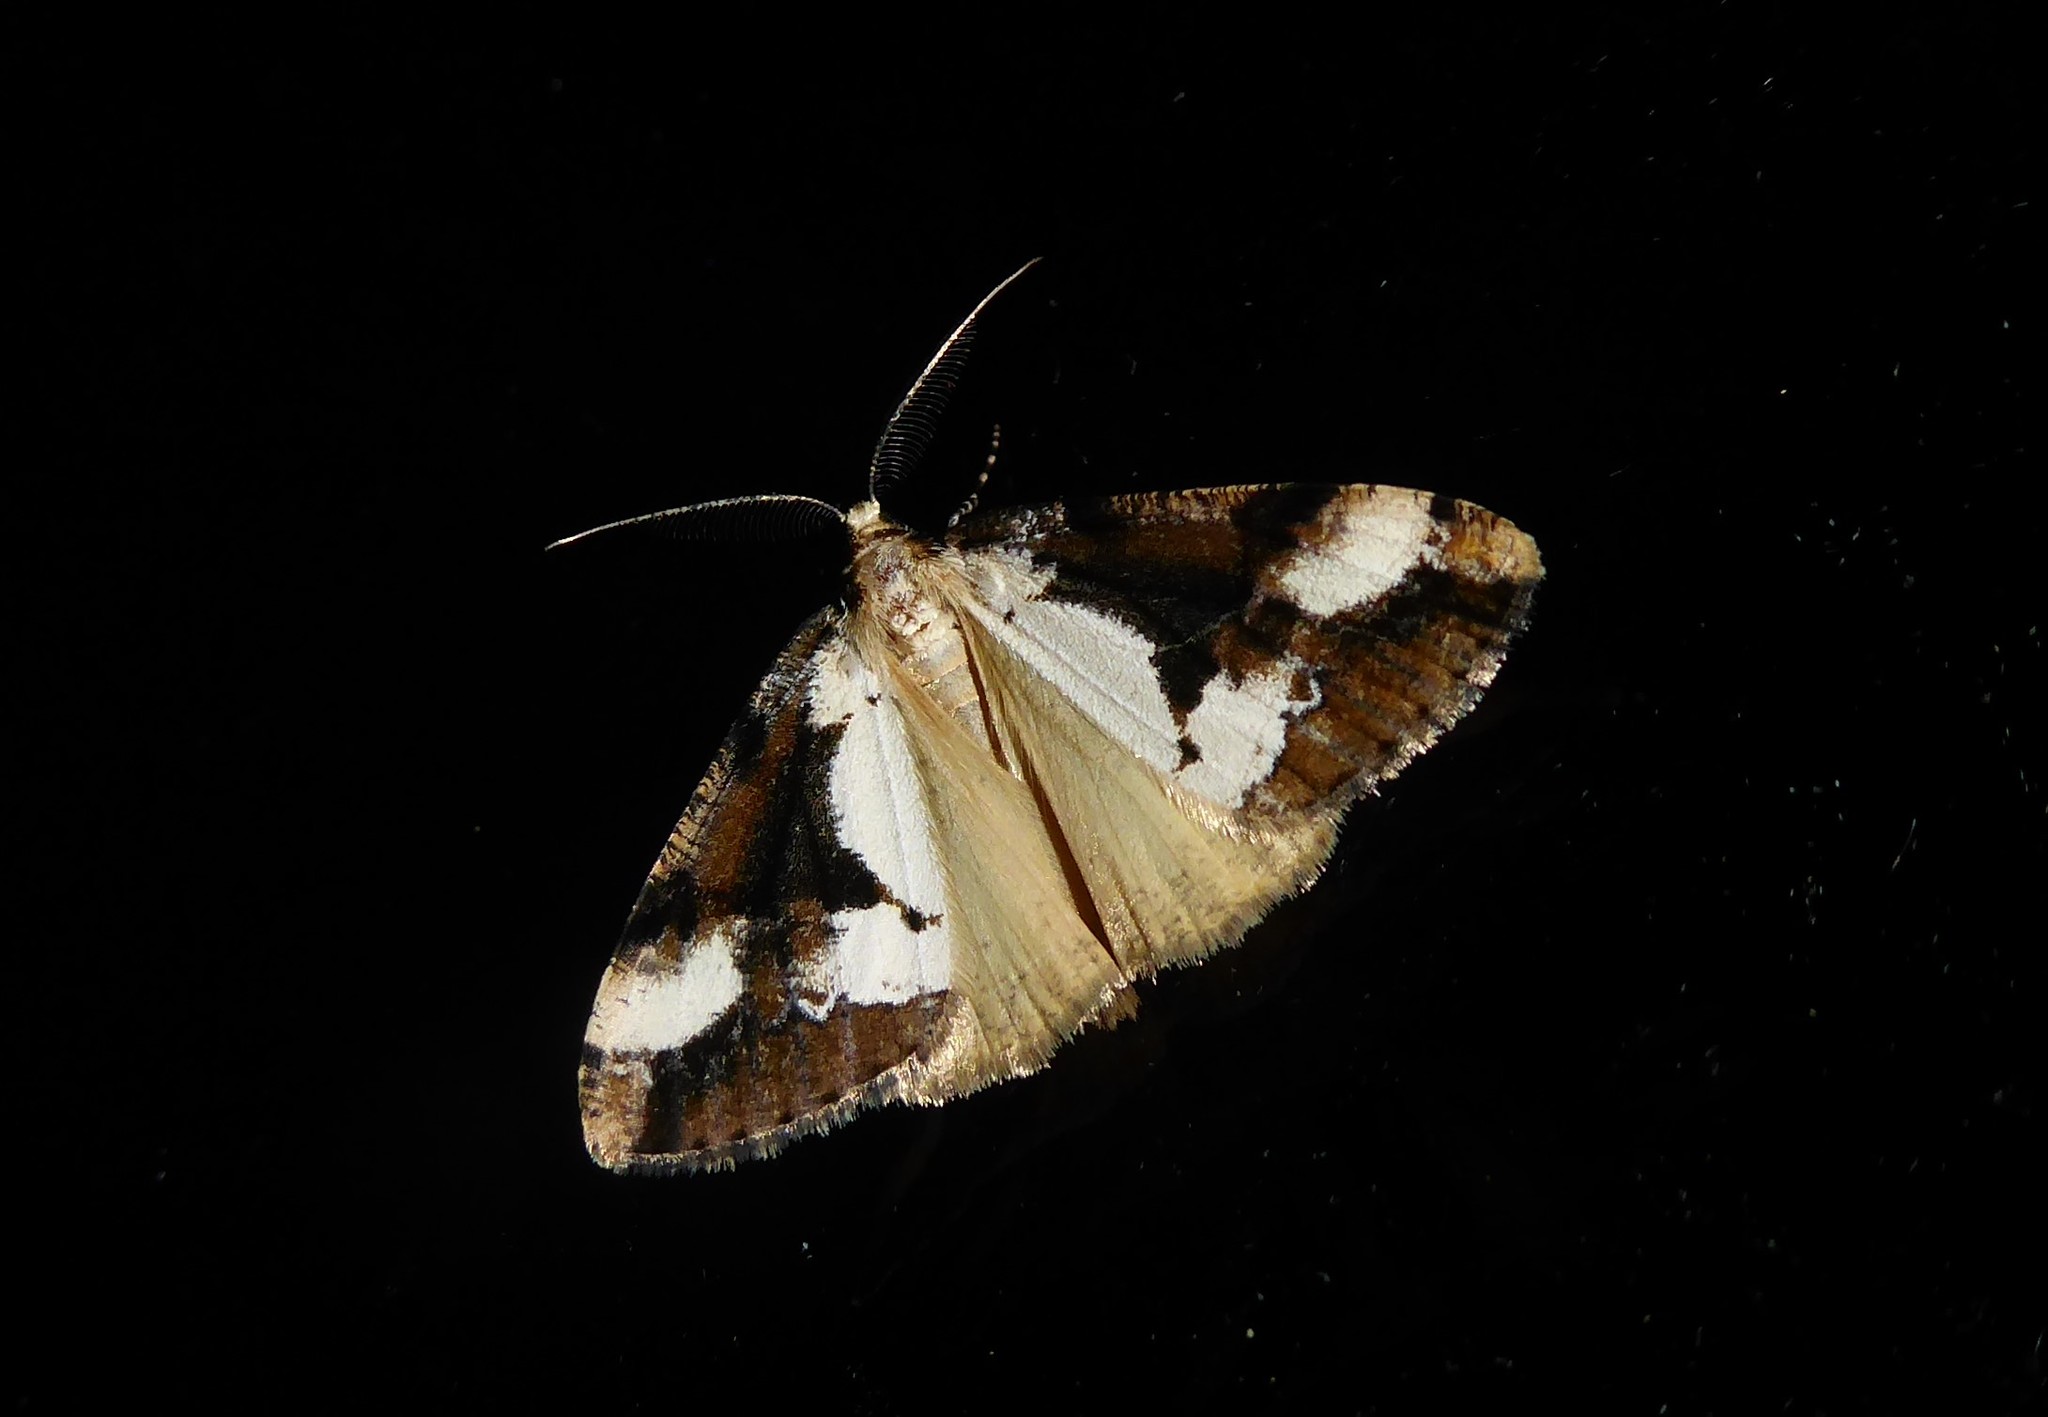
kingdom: Animalia
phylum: Arthropoda
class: Insecta
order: Lepidoptera
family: Geometridae
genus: Pseudocoremia
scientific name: Pseudocoremia leucelaea
